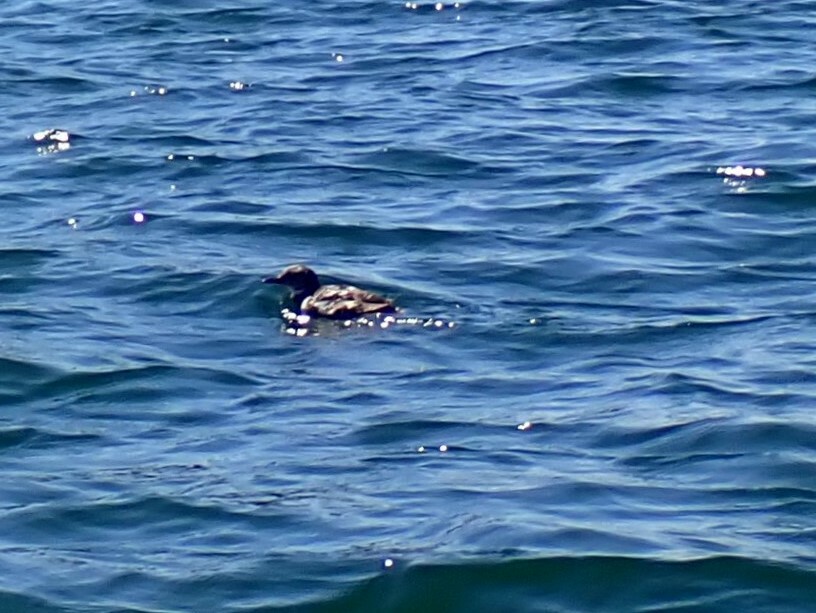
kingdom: Animalia
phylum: Chordata
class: Aves
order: Charadriiformes
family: Alcidae
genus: Uria
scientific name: Uria aalge
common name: Common murre
